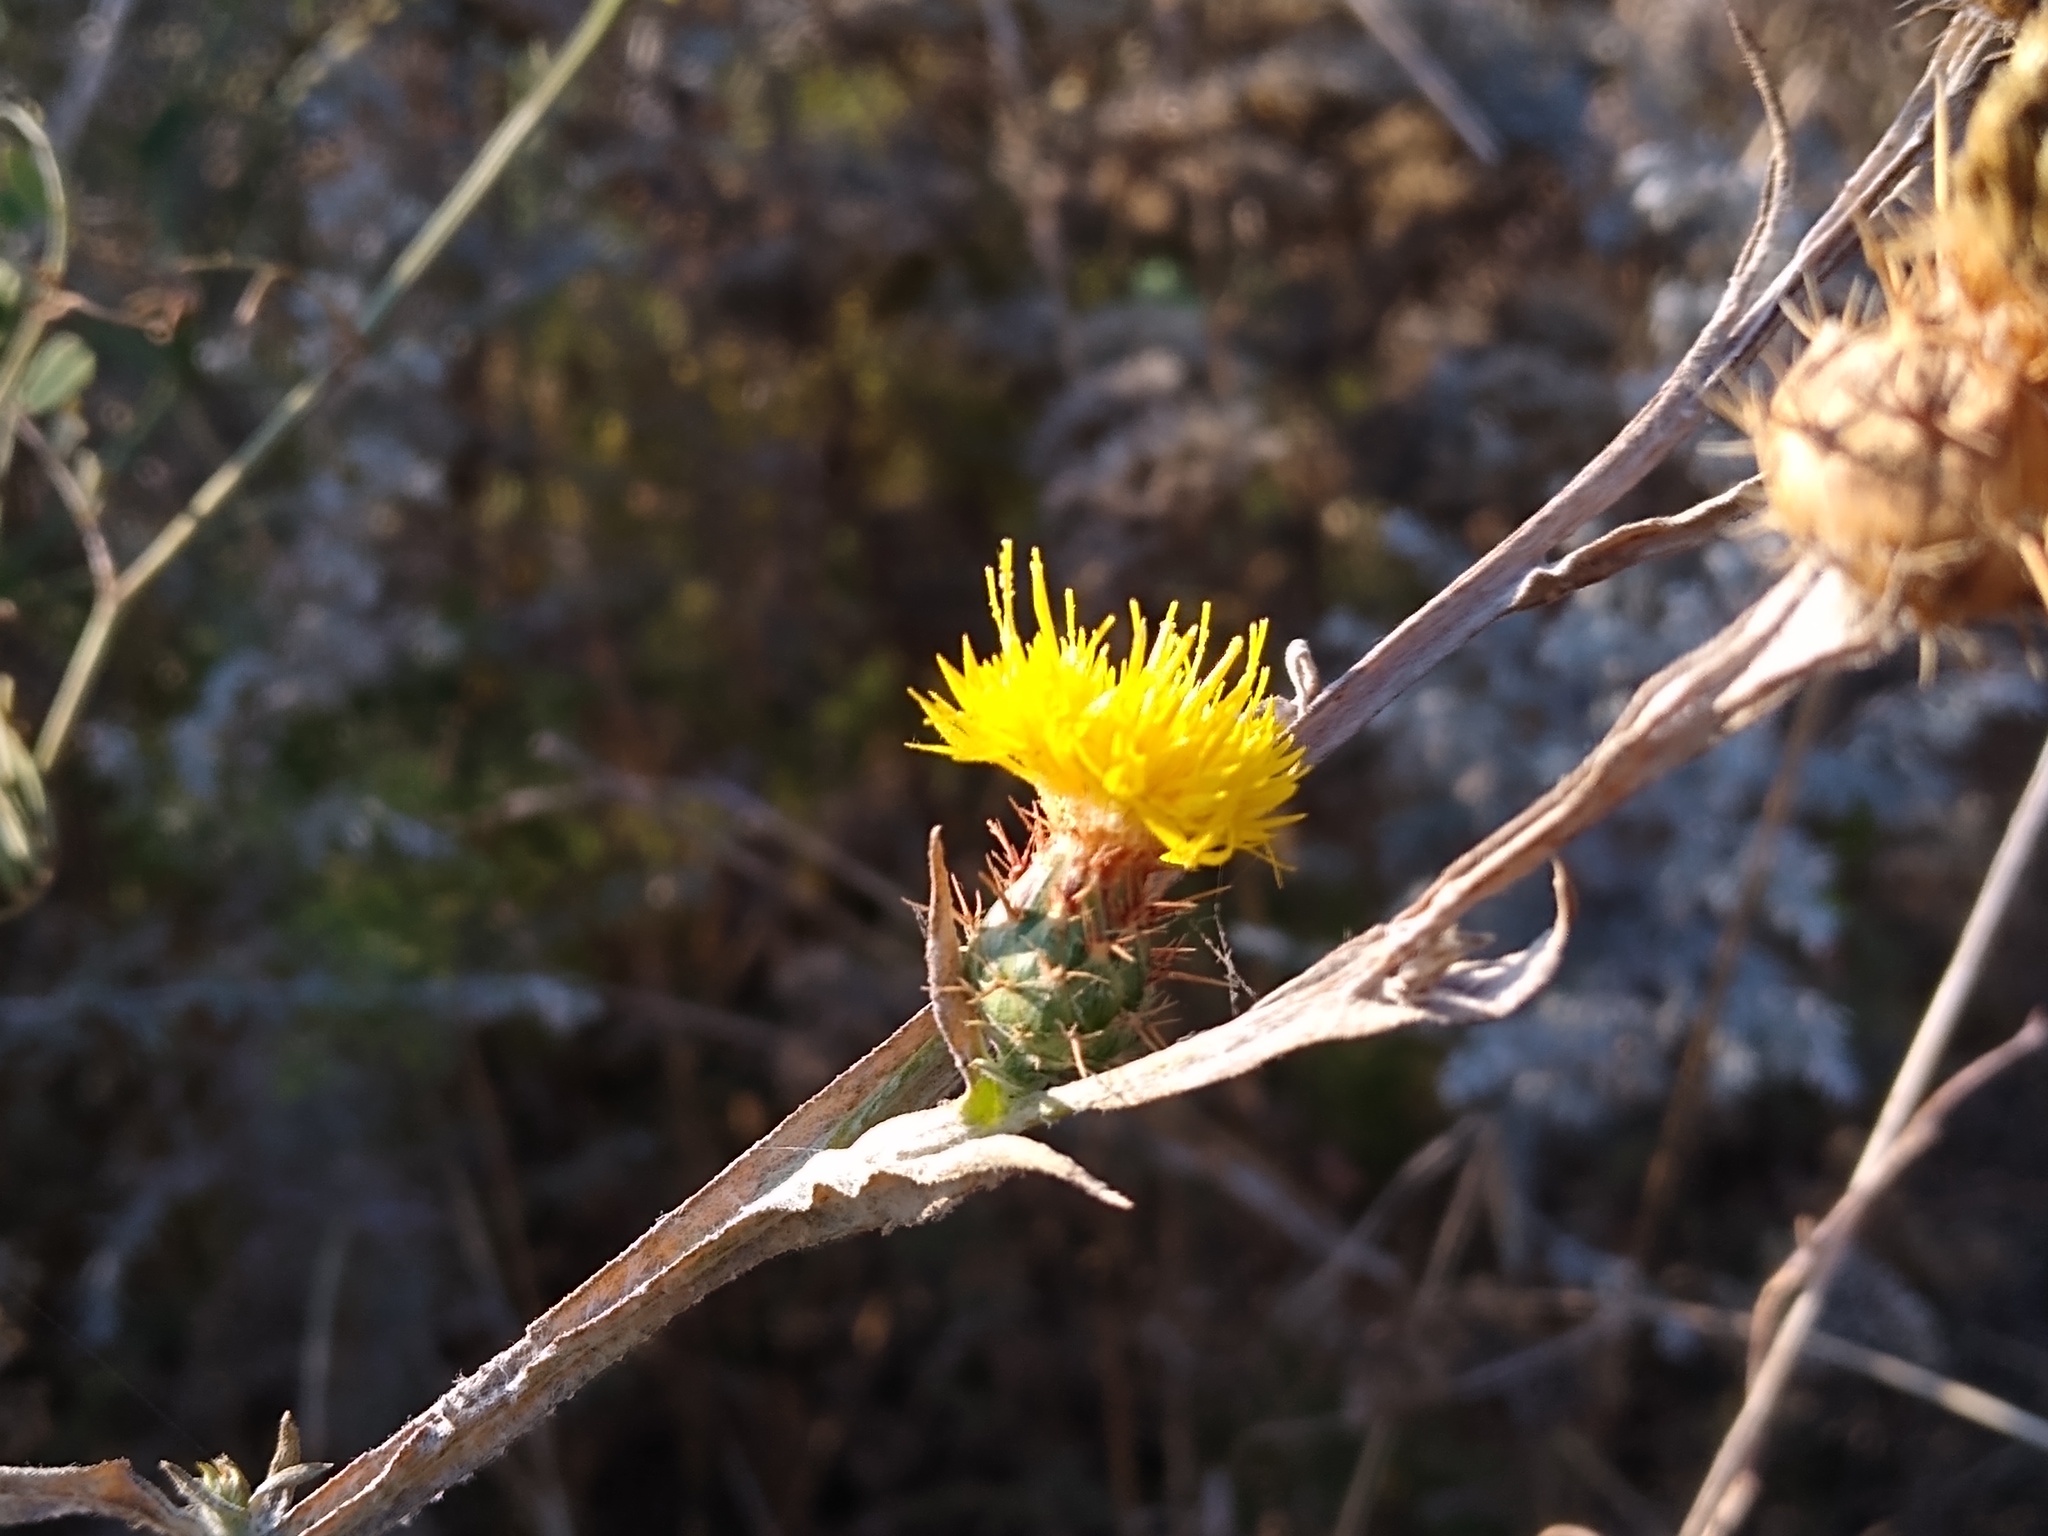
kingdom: Plantae
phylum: Tracheophyta
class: Magnoliopsida
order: Asterales
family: Asteraceae
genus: Centaurea
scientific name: Centaurea solstitialis
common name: Yellow star-thistle
